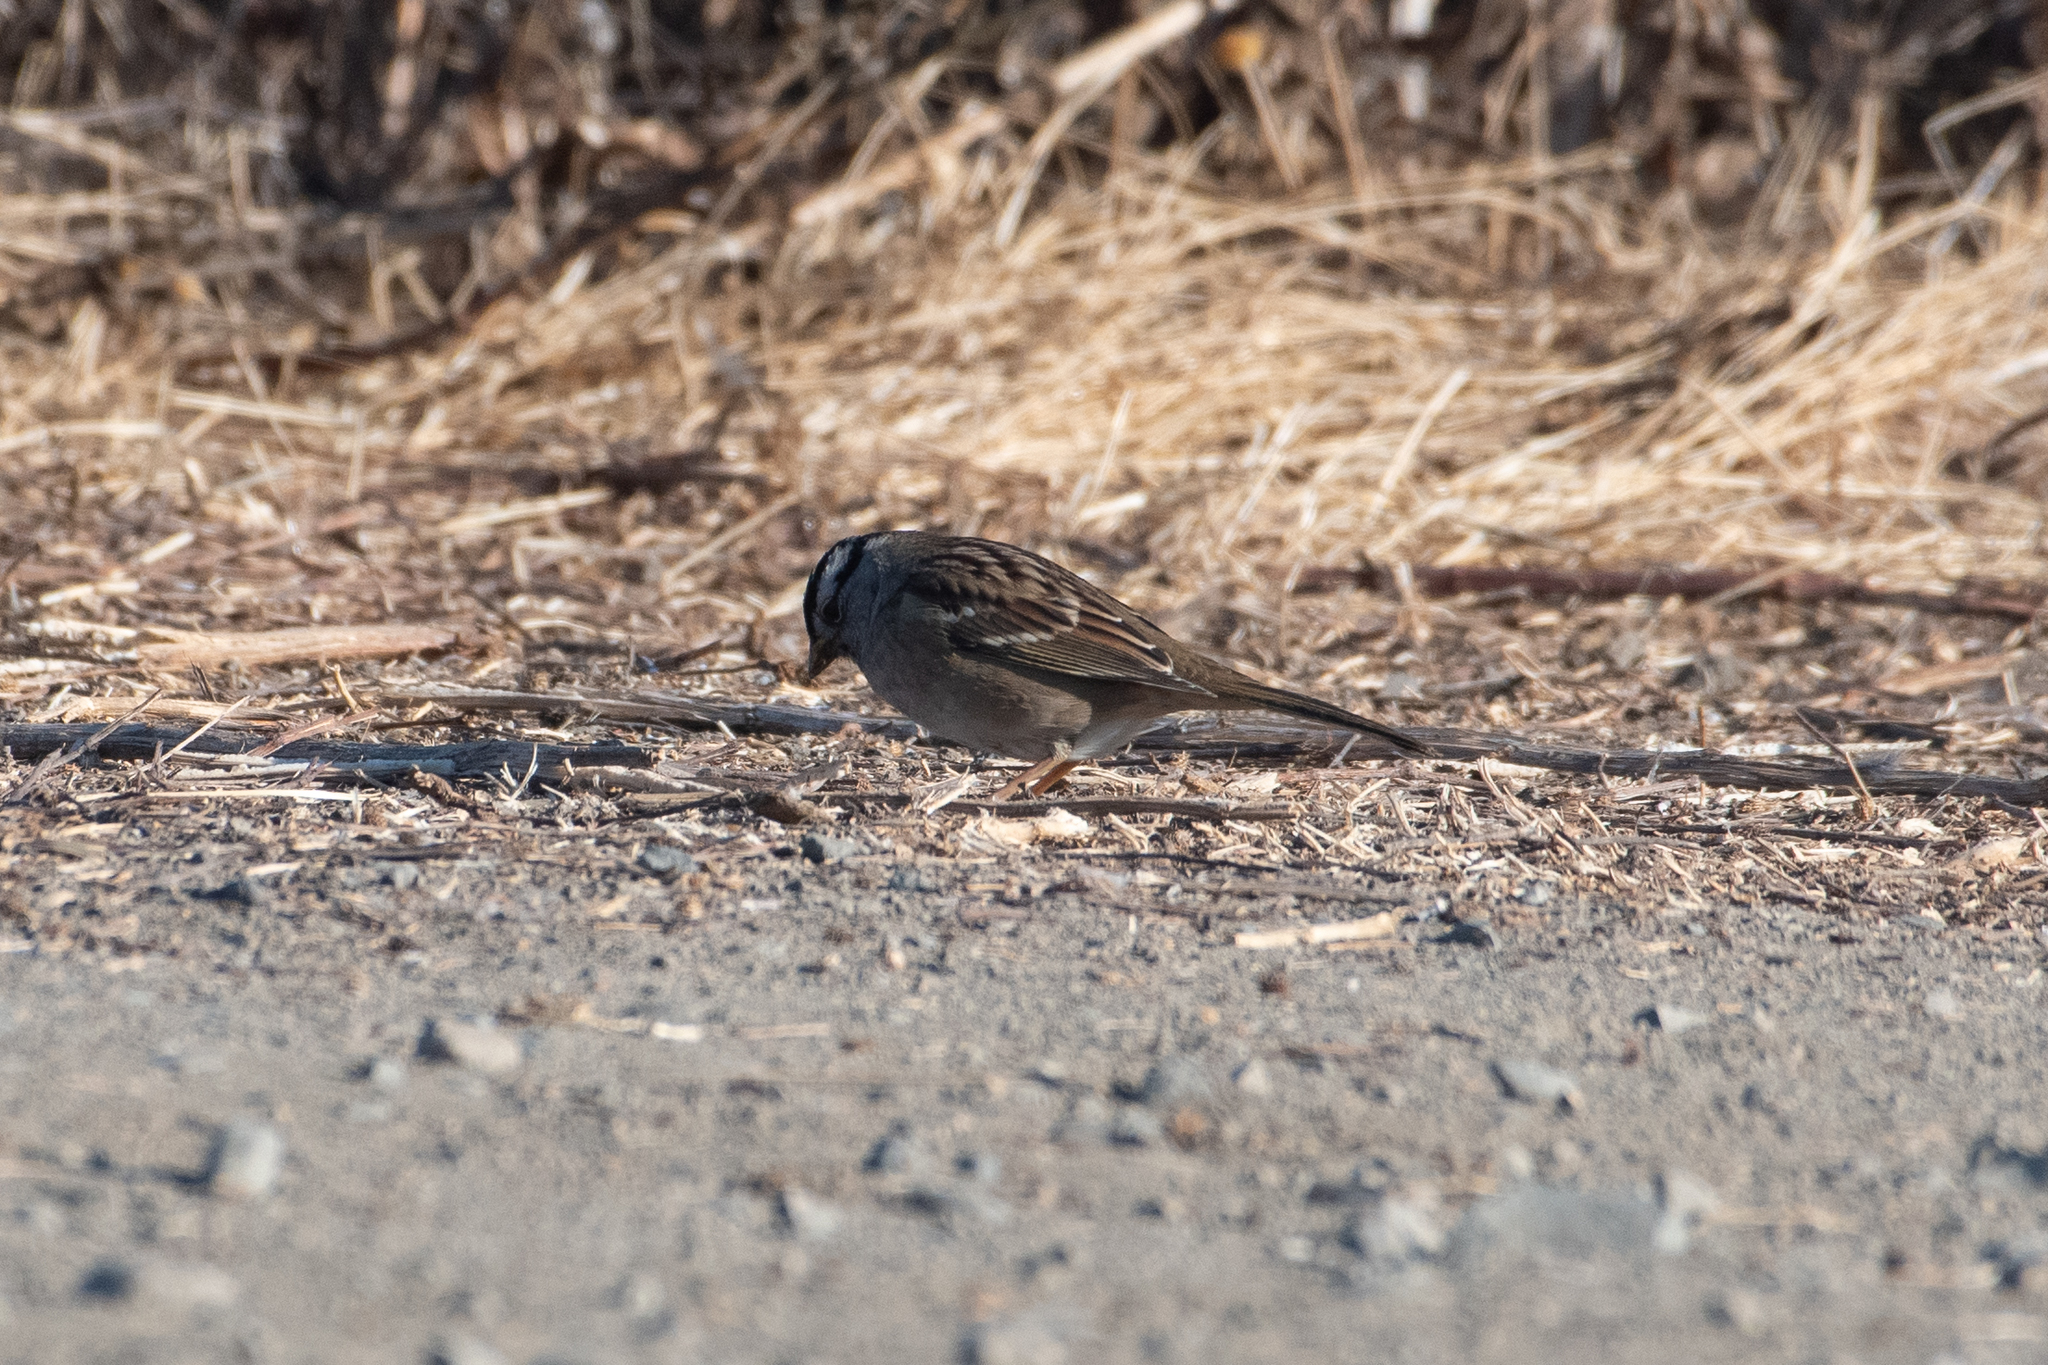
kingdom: Animalia
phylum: Chordata
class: Aves
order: Passeriformes
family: Passerellidae
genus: Zonotrichia
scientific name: Zonotrichia leucophrys
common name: White-crowned sparrow
